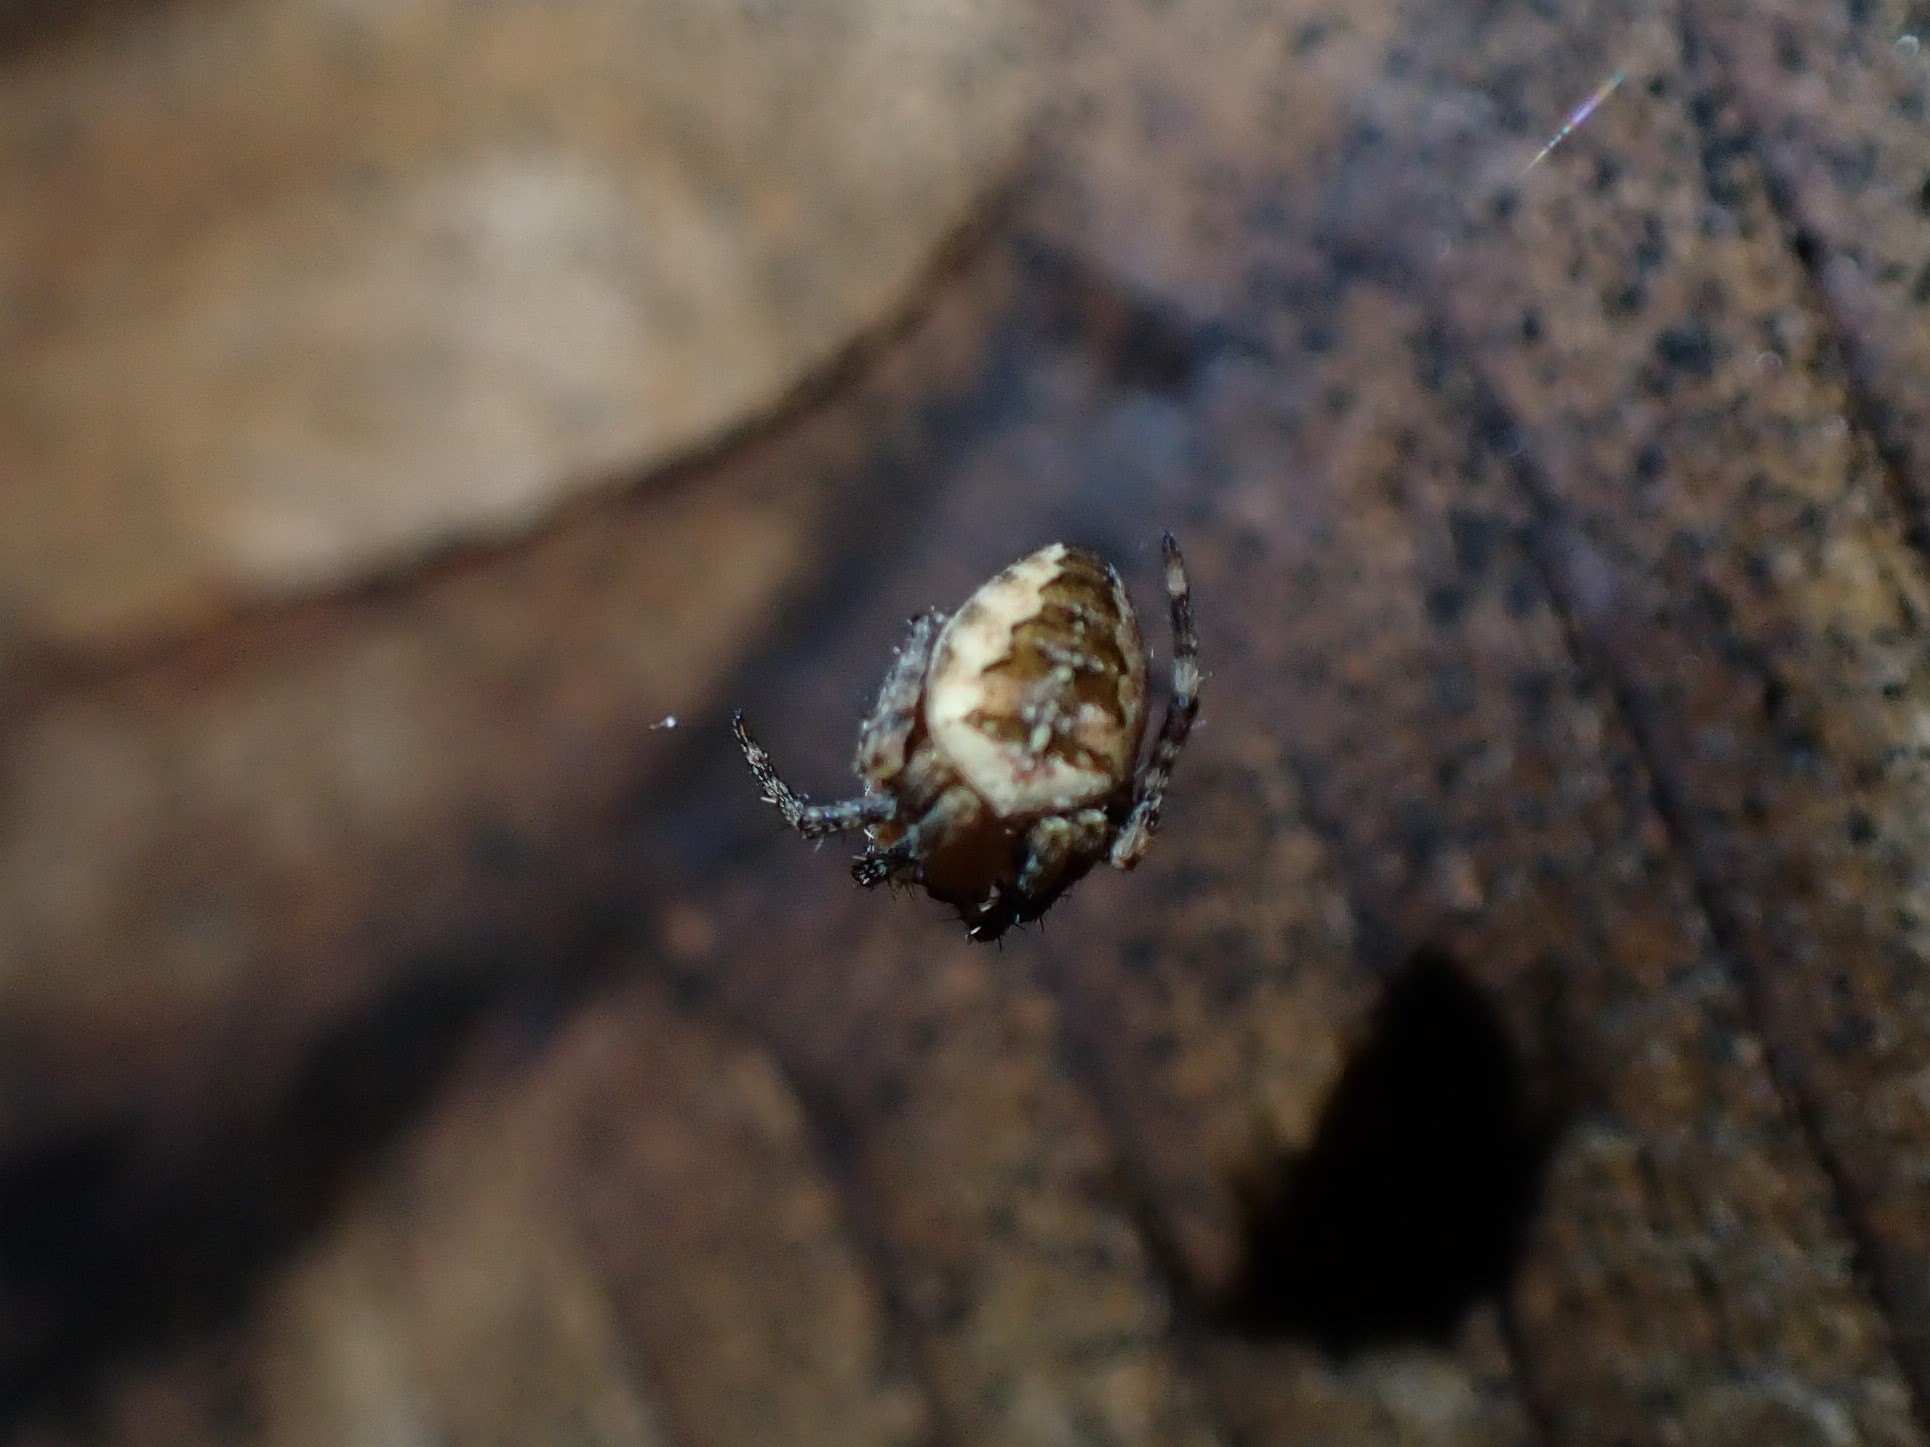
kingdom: Animalia
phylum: Arthropoda
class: Arachnida
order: Araneae
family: Araneidae
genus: Araneus
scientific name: Araneus diadematus
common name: Cross orbweaver
